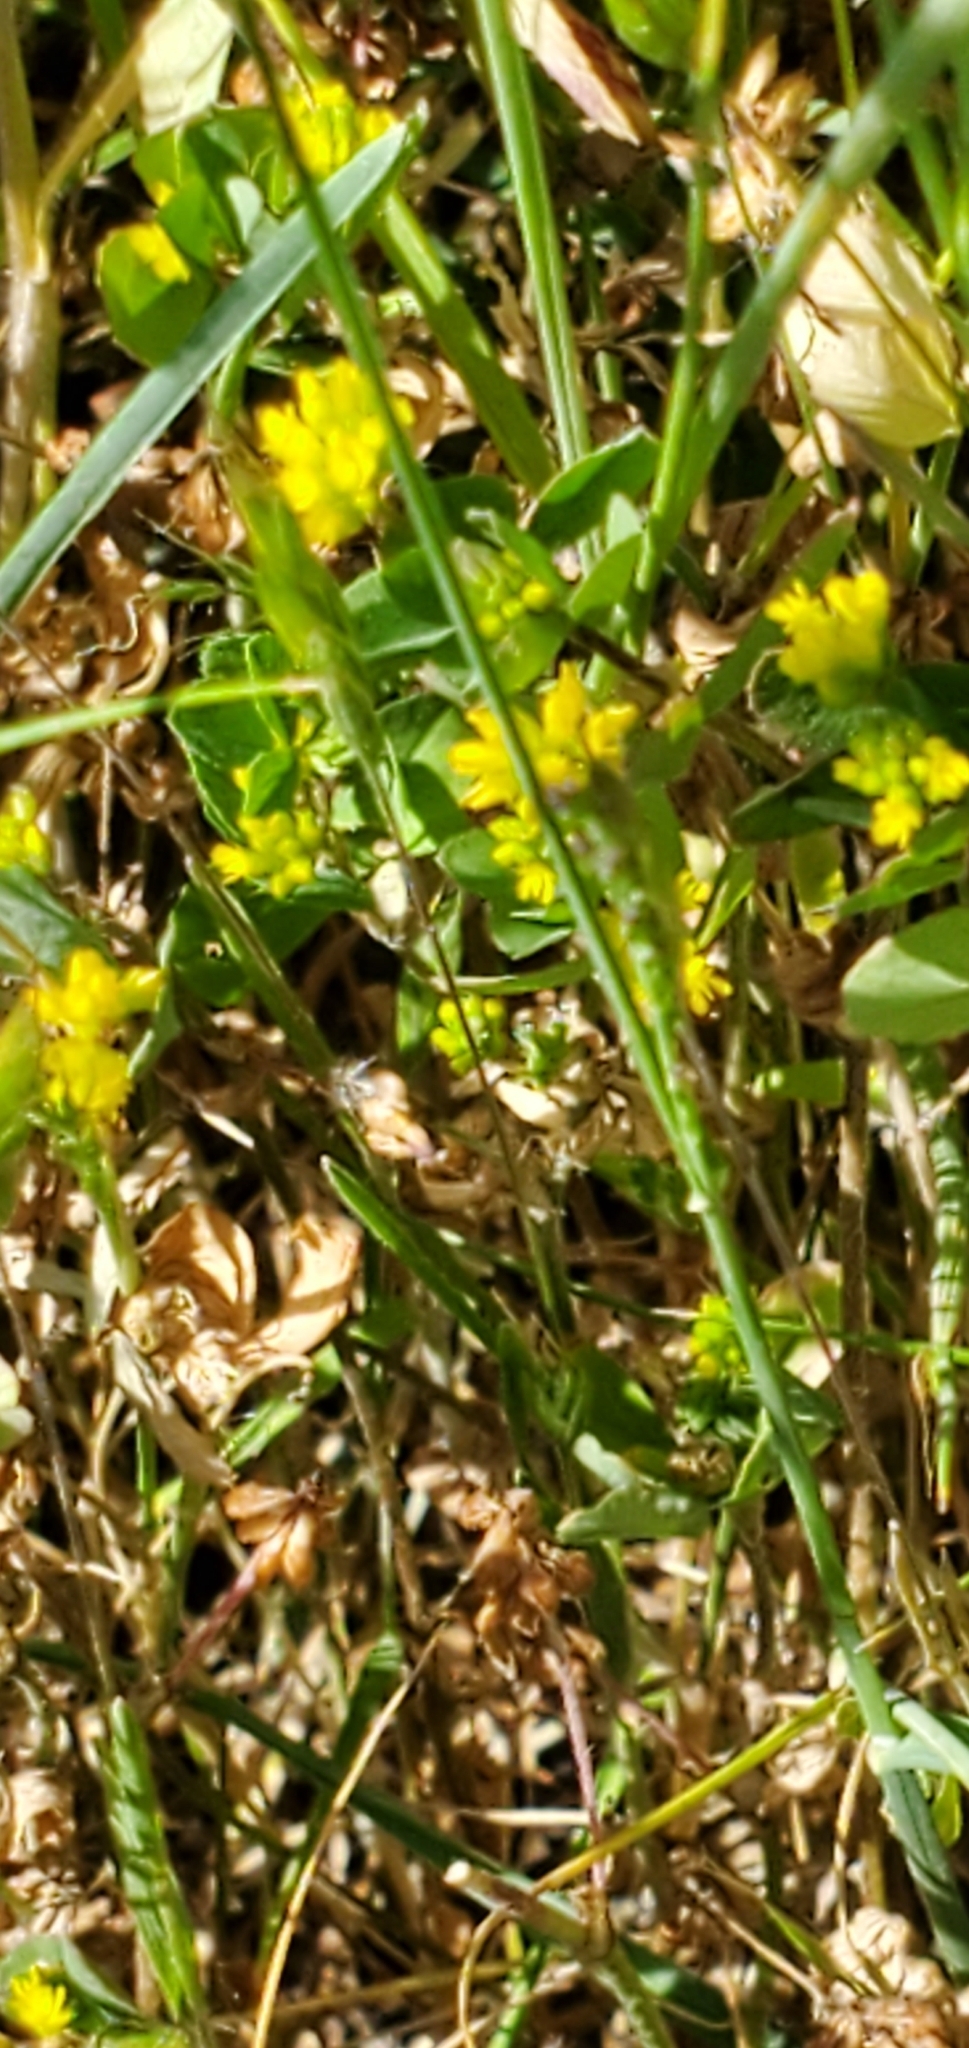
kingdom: Plantae
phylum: Tracheophyta
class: Magnoliopsida
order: Fabales
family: Fabaceae
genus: Trifolium
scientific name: Trifolium dubium
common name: Suckling clover
